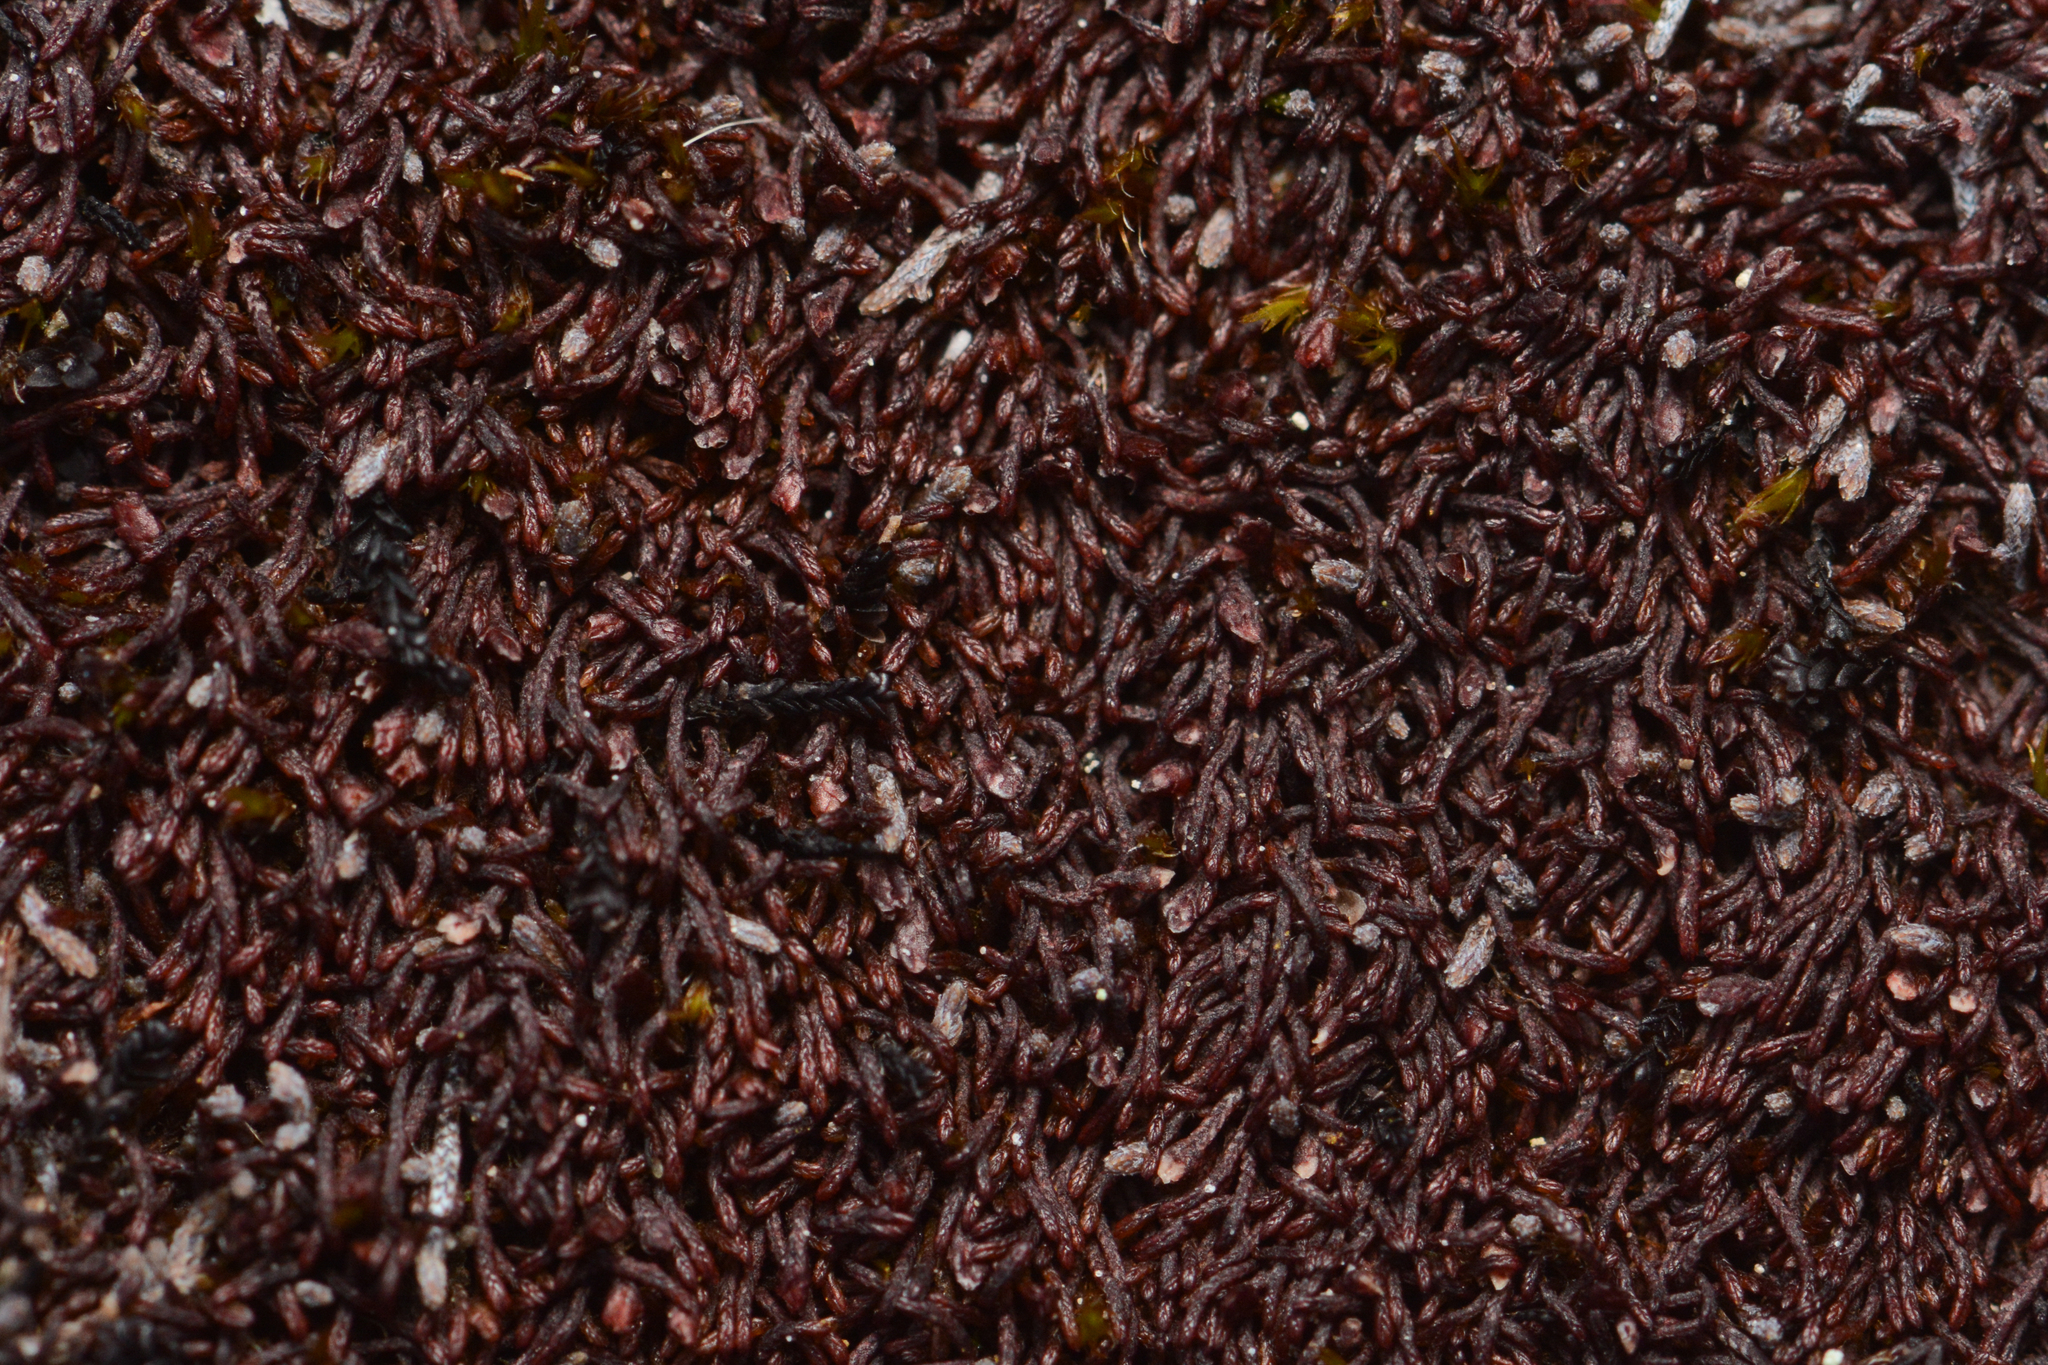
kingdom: Plantae
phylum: Marchantiophyta
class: Jungermanniopsida
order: Jungermanniales
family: Gymnomitriaceae
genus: Gymnomitrion
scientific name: Gymnomitrion brevissimum
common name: Snow rustwort
